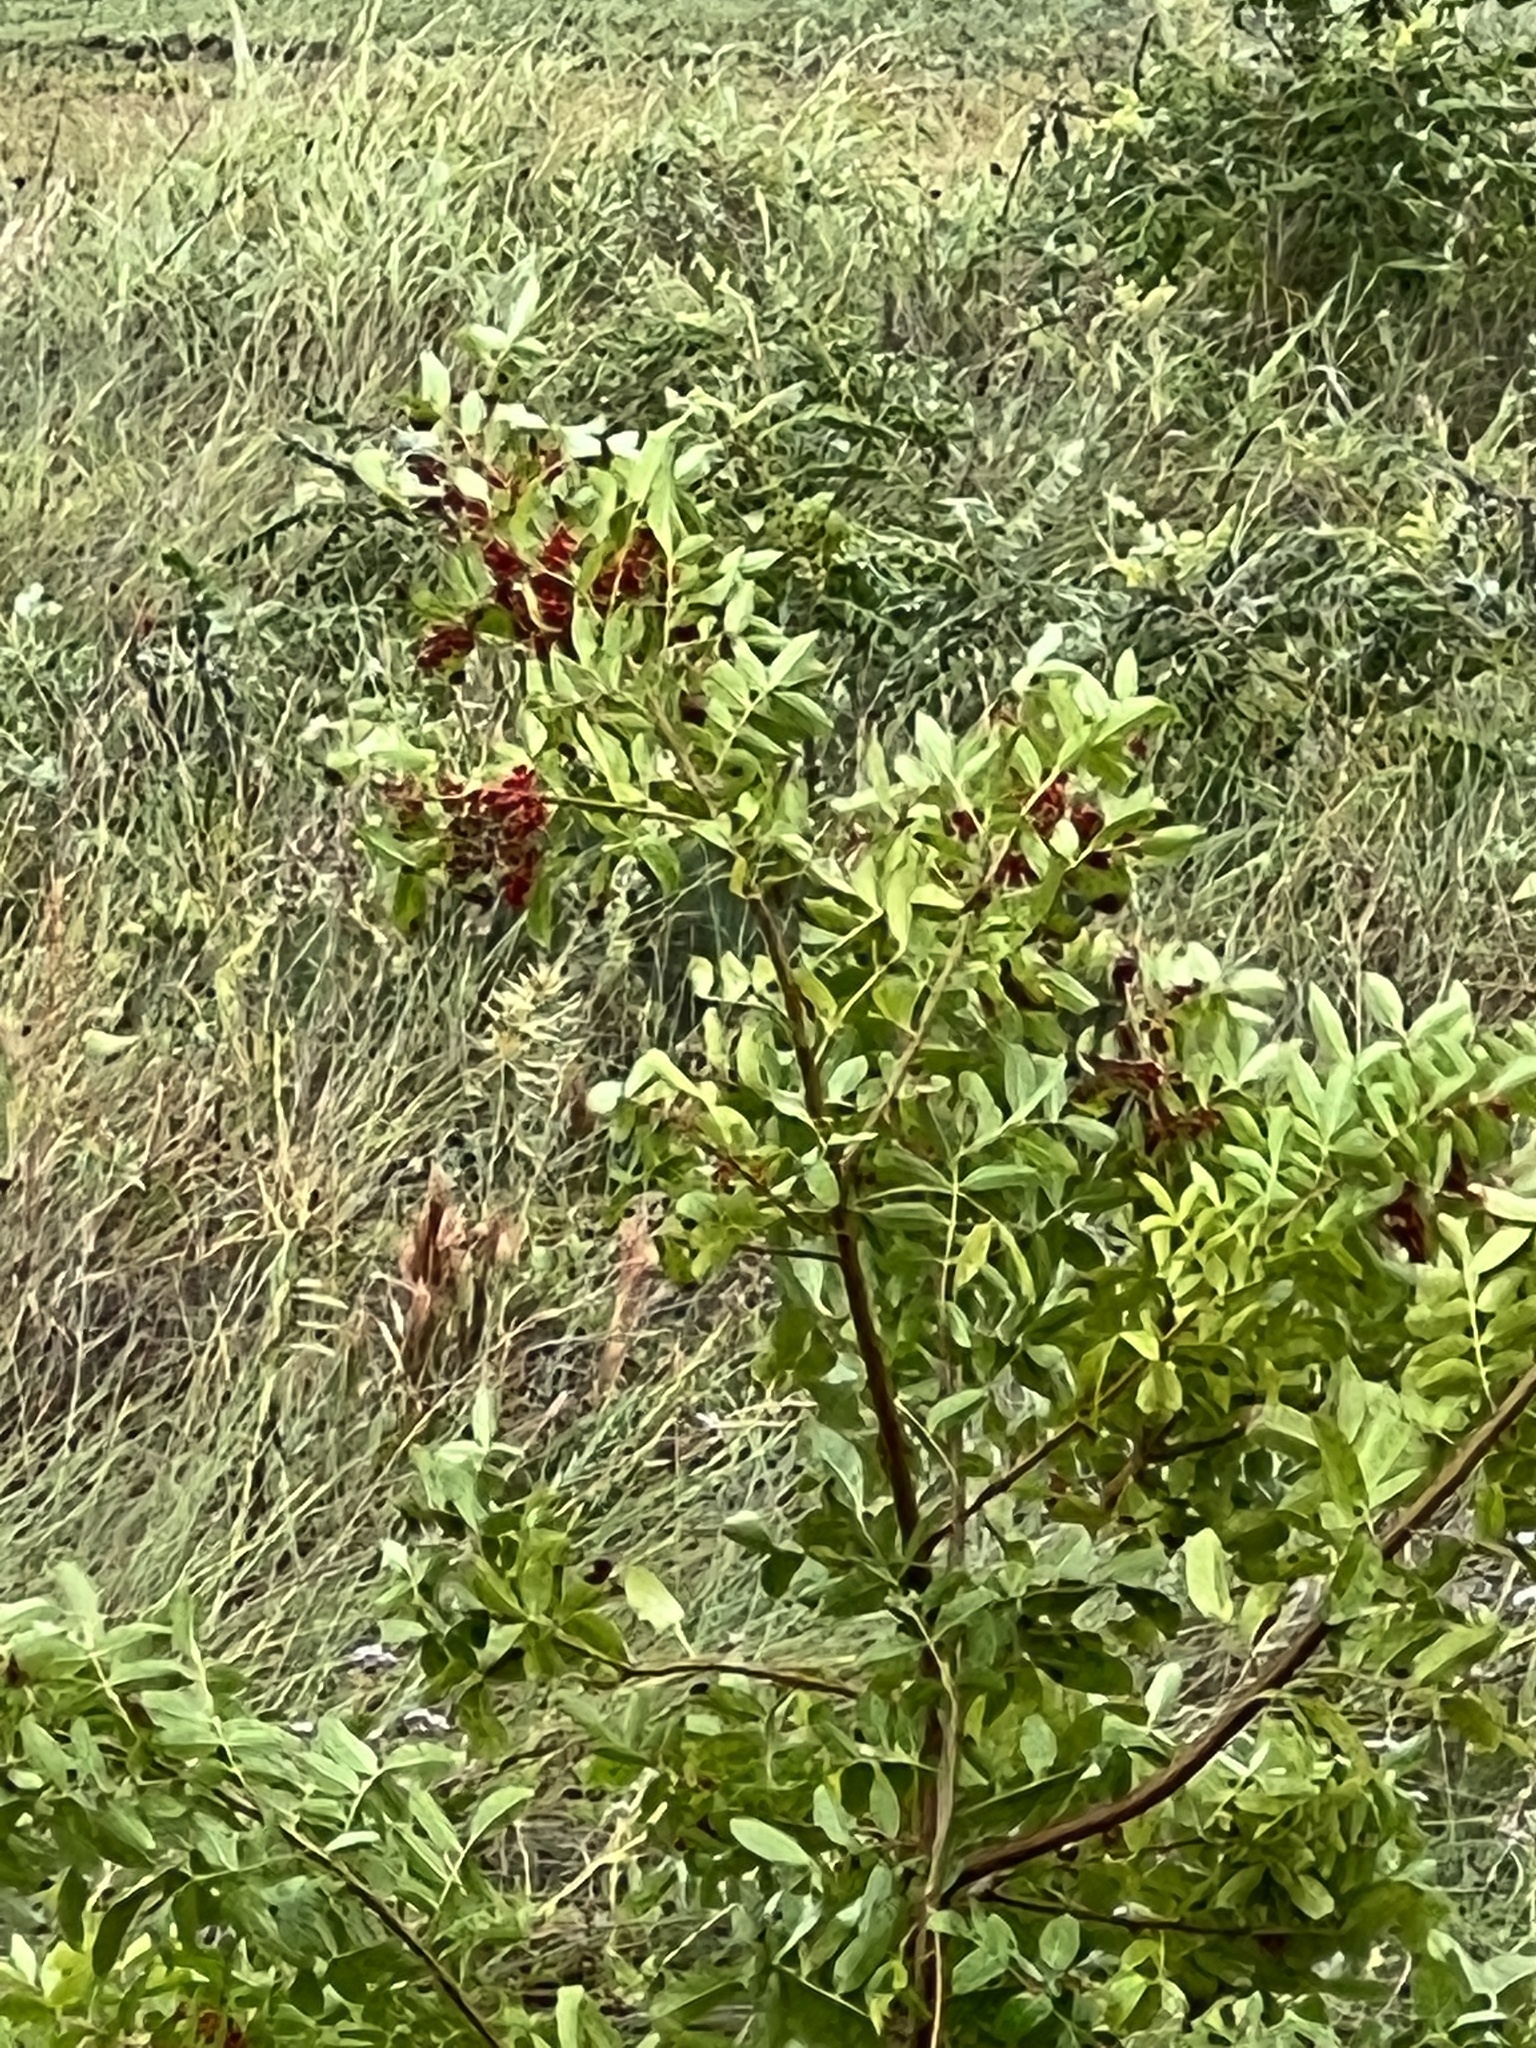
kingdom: Plantae
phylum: Tracheophyta
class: Magnoliopsida
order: Sapindales
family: Anacardiaceae
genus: Schinus
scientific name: Schinus terebinthifolia
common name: Brazilian peppertree
